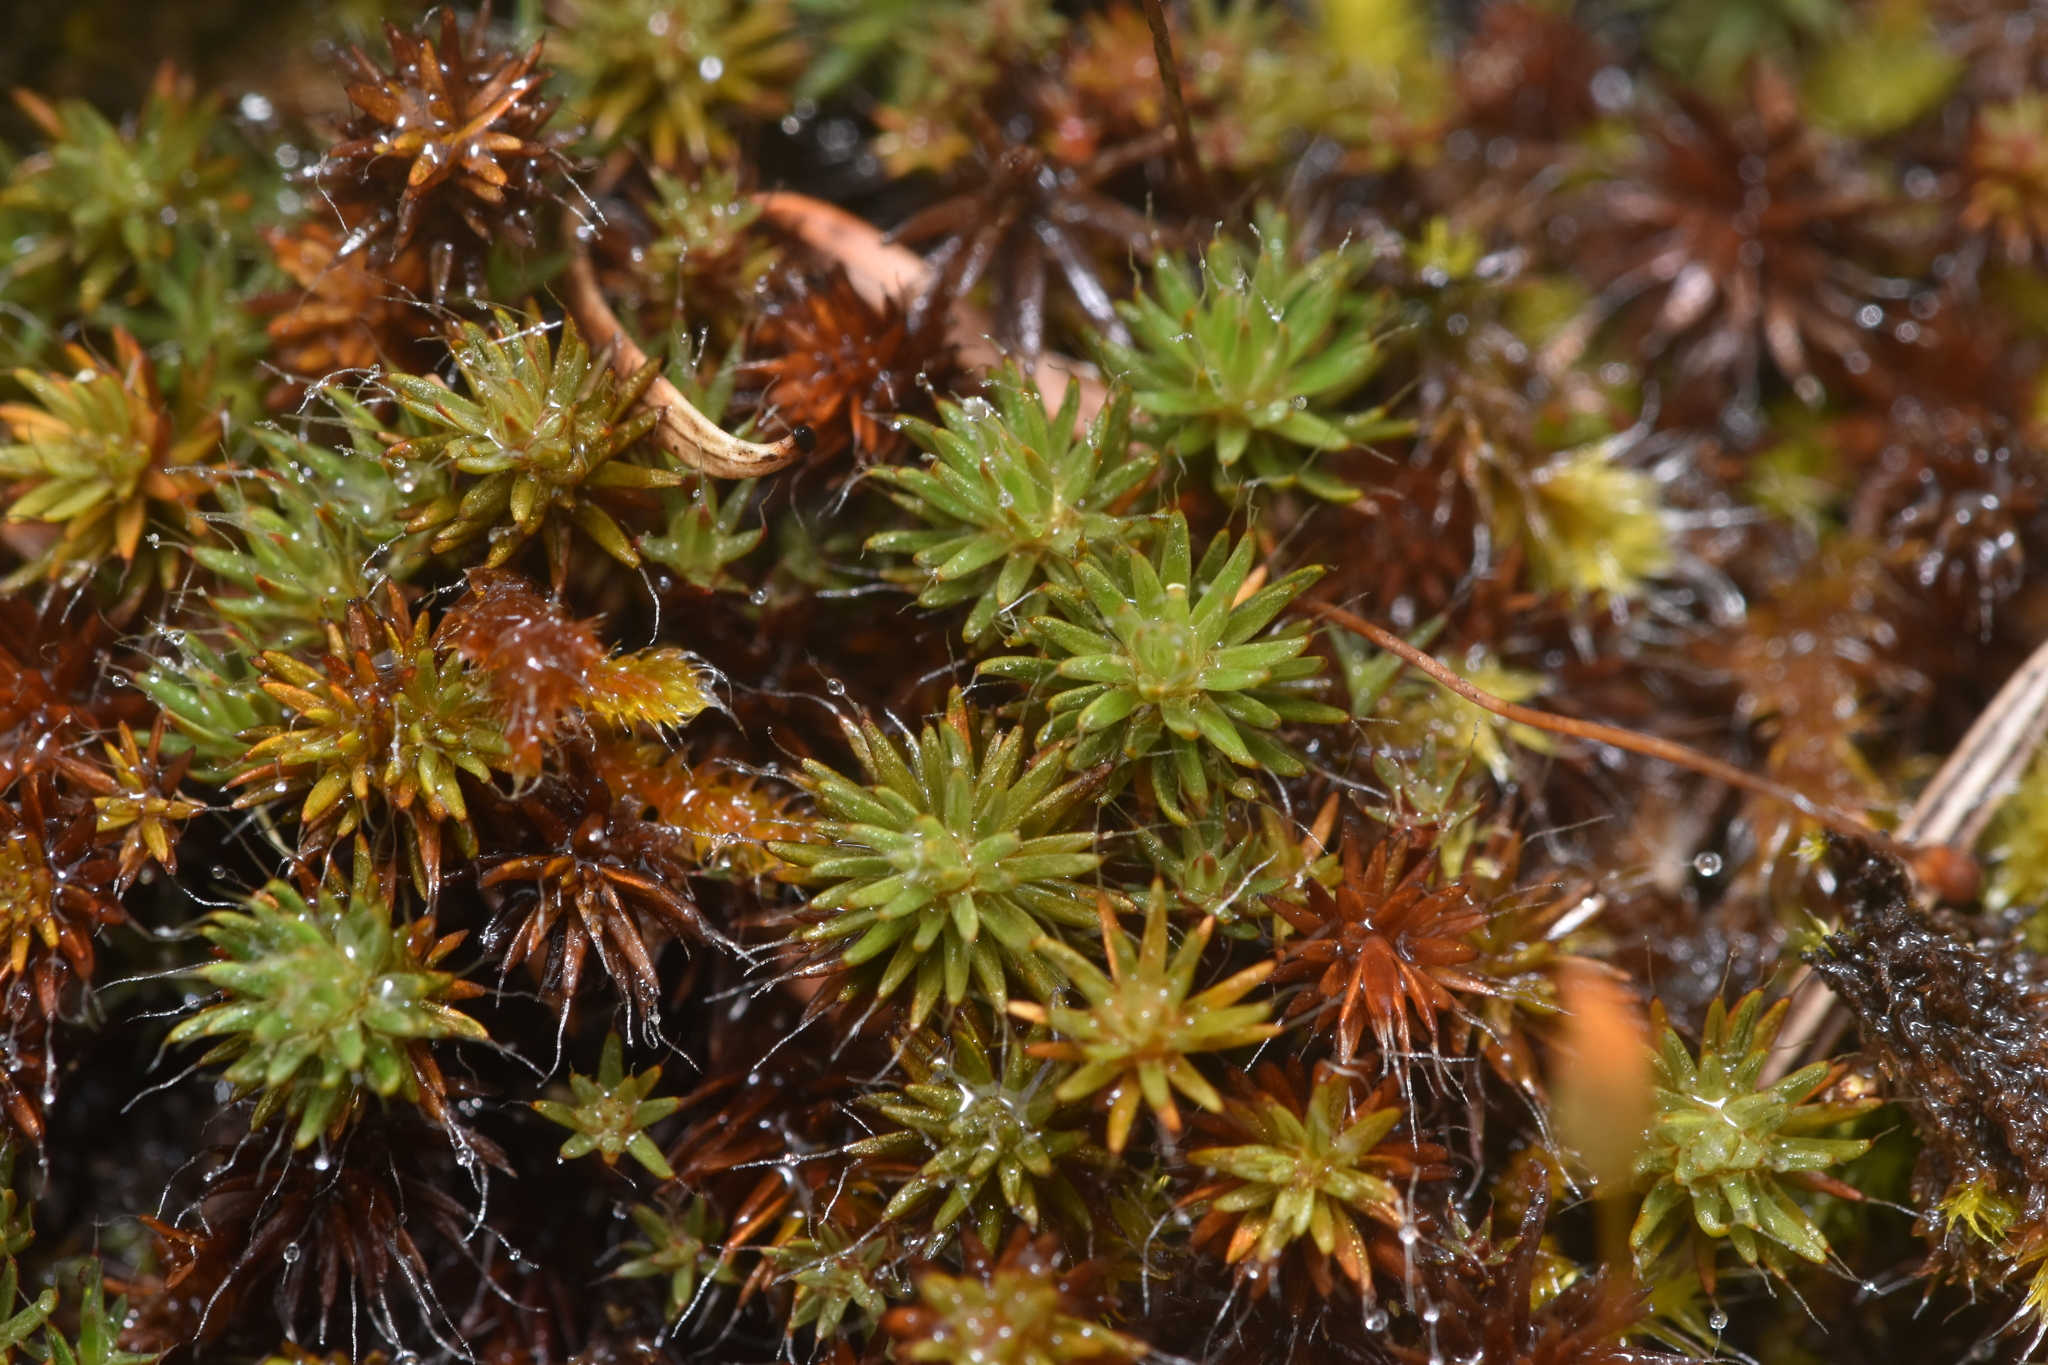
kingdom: Plantae
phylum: Bryophyta
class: Polytrichopsida
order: Polytrichales
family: Polytrichaceae
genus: Polytrichum
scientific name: Polytrichum piliferum
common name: Bristly haircap
